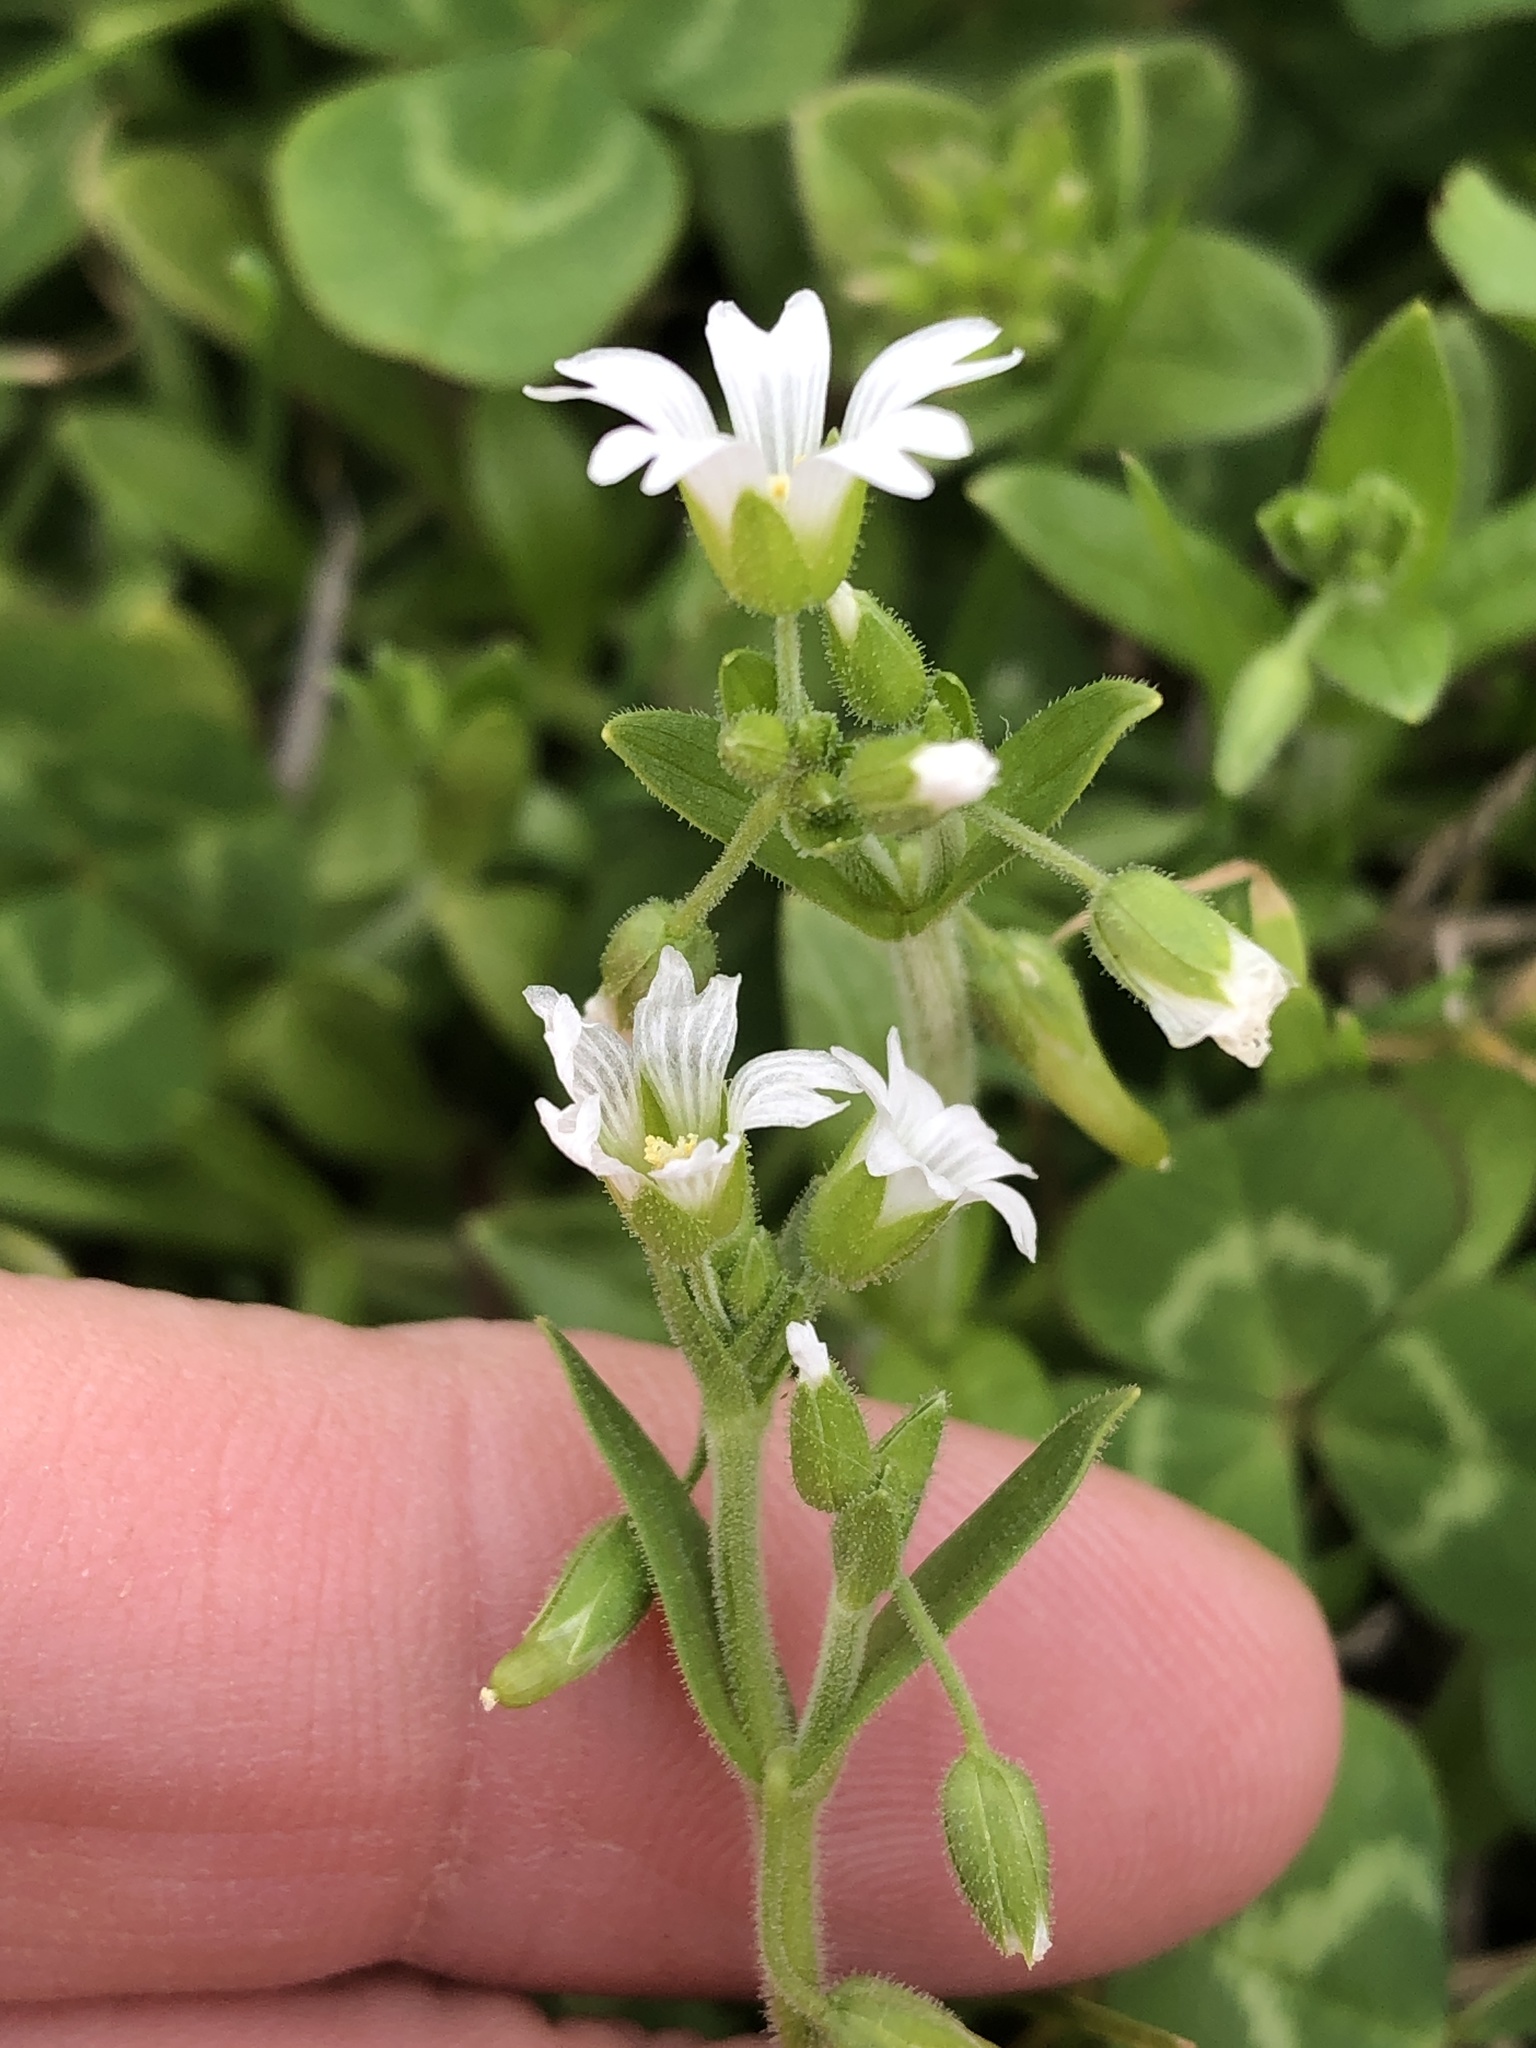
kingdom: Plantae
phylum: Tracheophyta
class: Magnoliopsida
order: Caryophyllales
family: Caryophyllaceae
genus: Cerastium
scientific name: Cerastium fontanum
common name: Common mouse-ear
